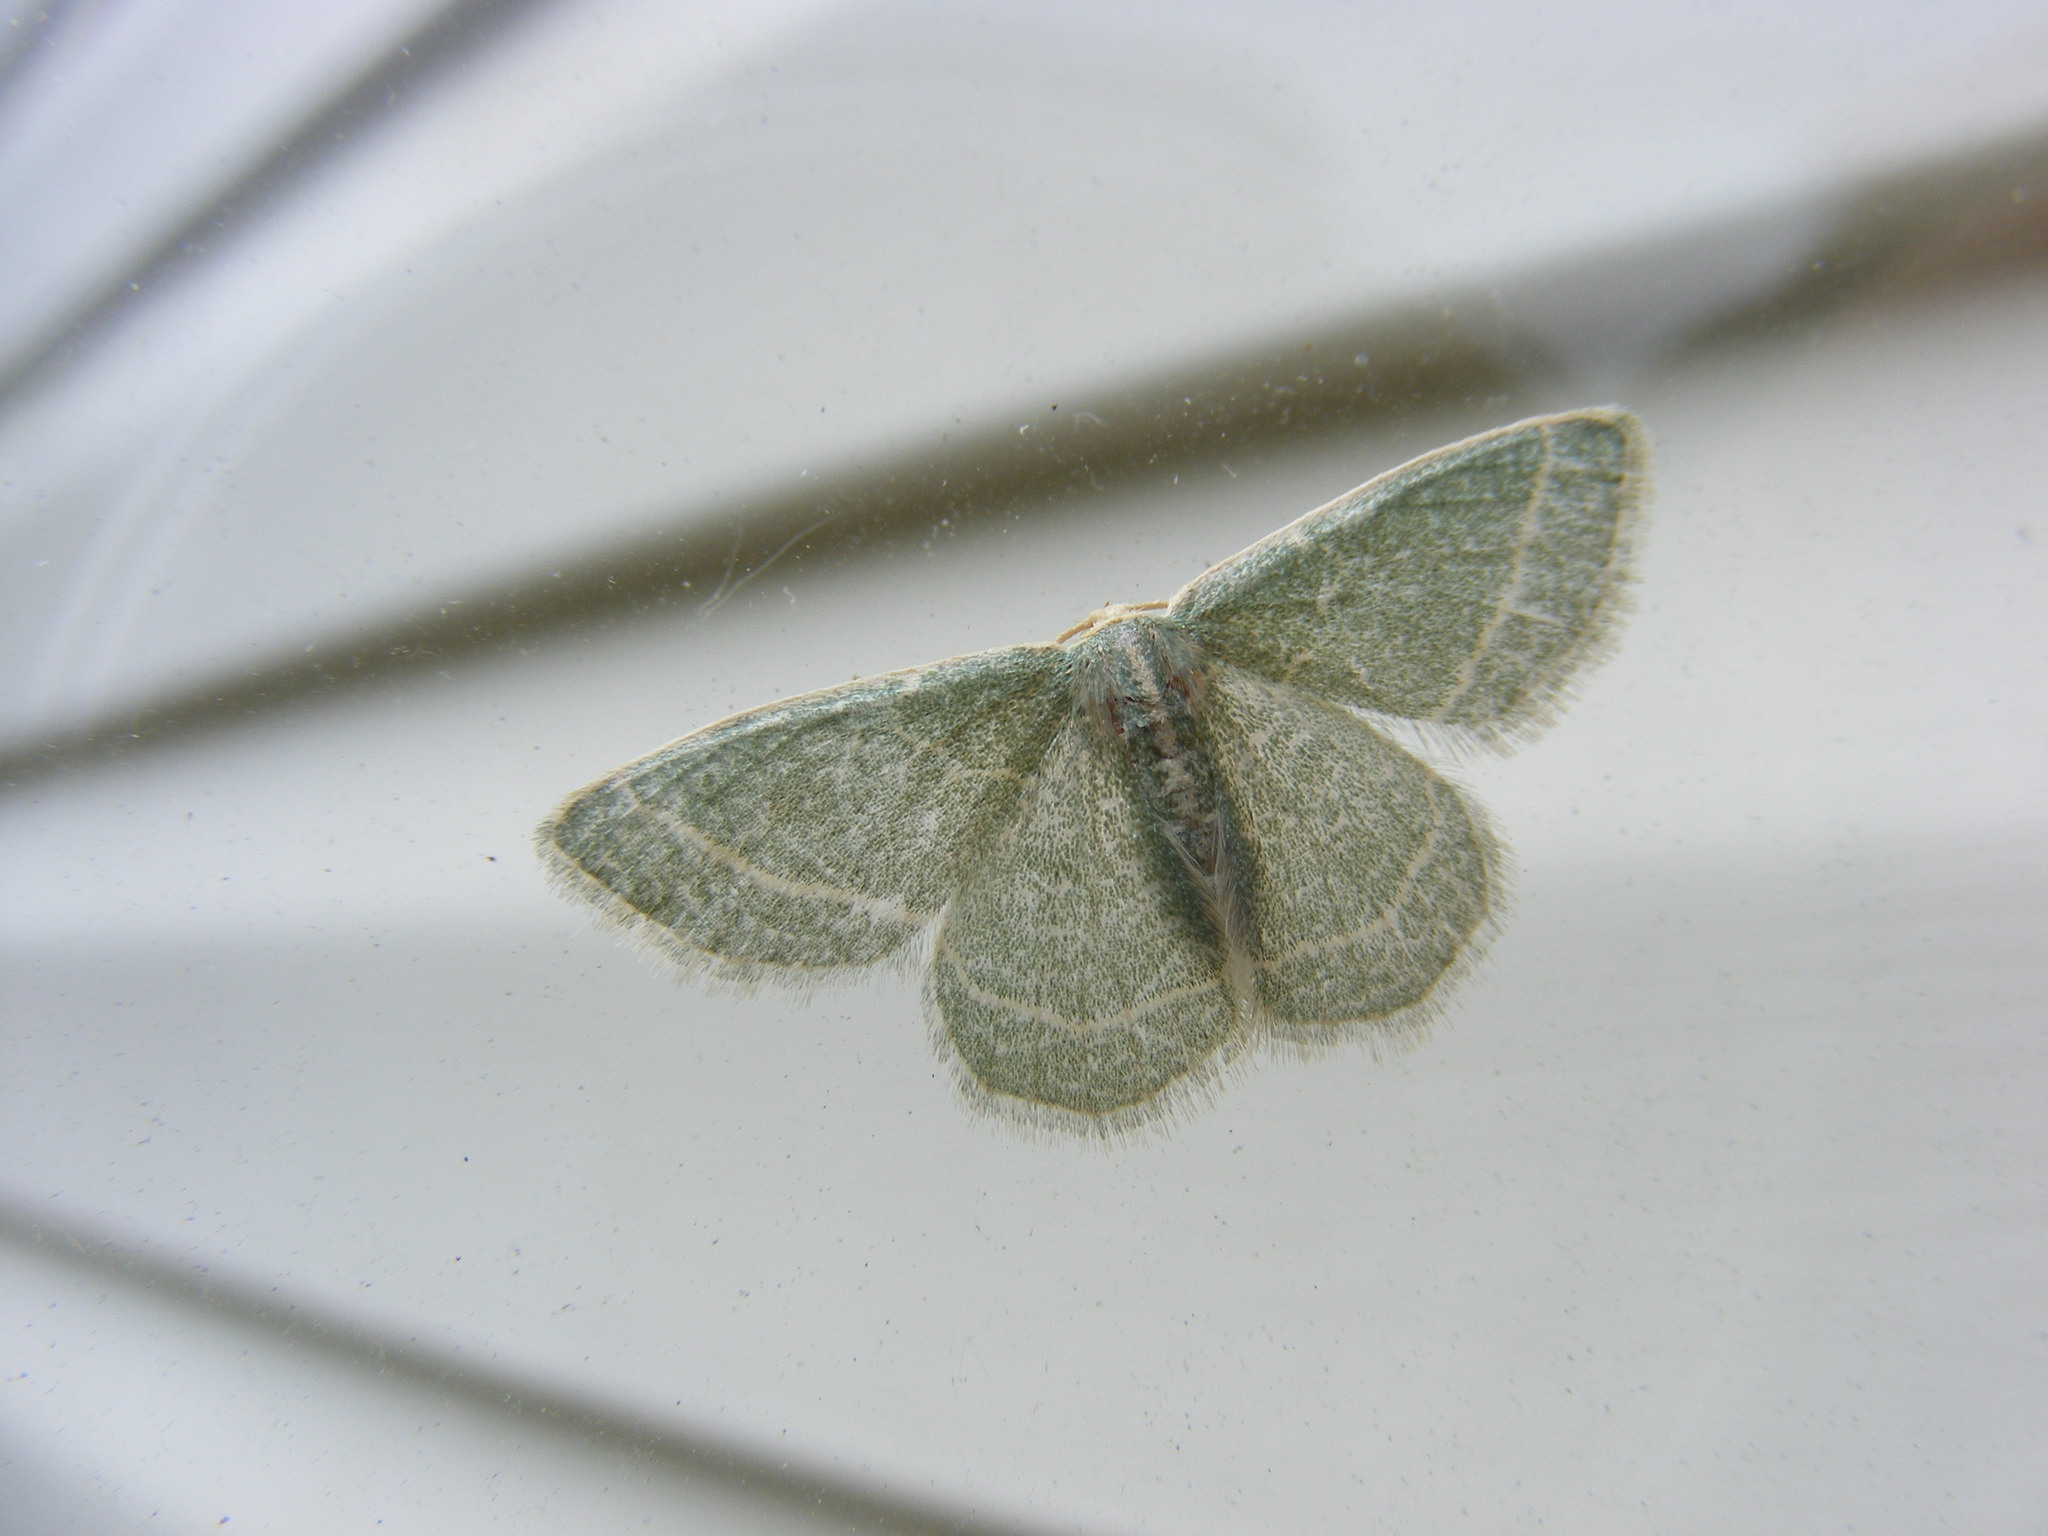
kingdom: Animalia
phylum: Arthropoda
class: Insecta
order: Lepidoptera
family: Geometridae
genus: Chlorochlamys
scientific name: Chlorochlamys chloroleucaria
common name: Blackberry looper
